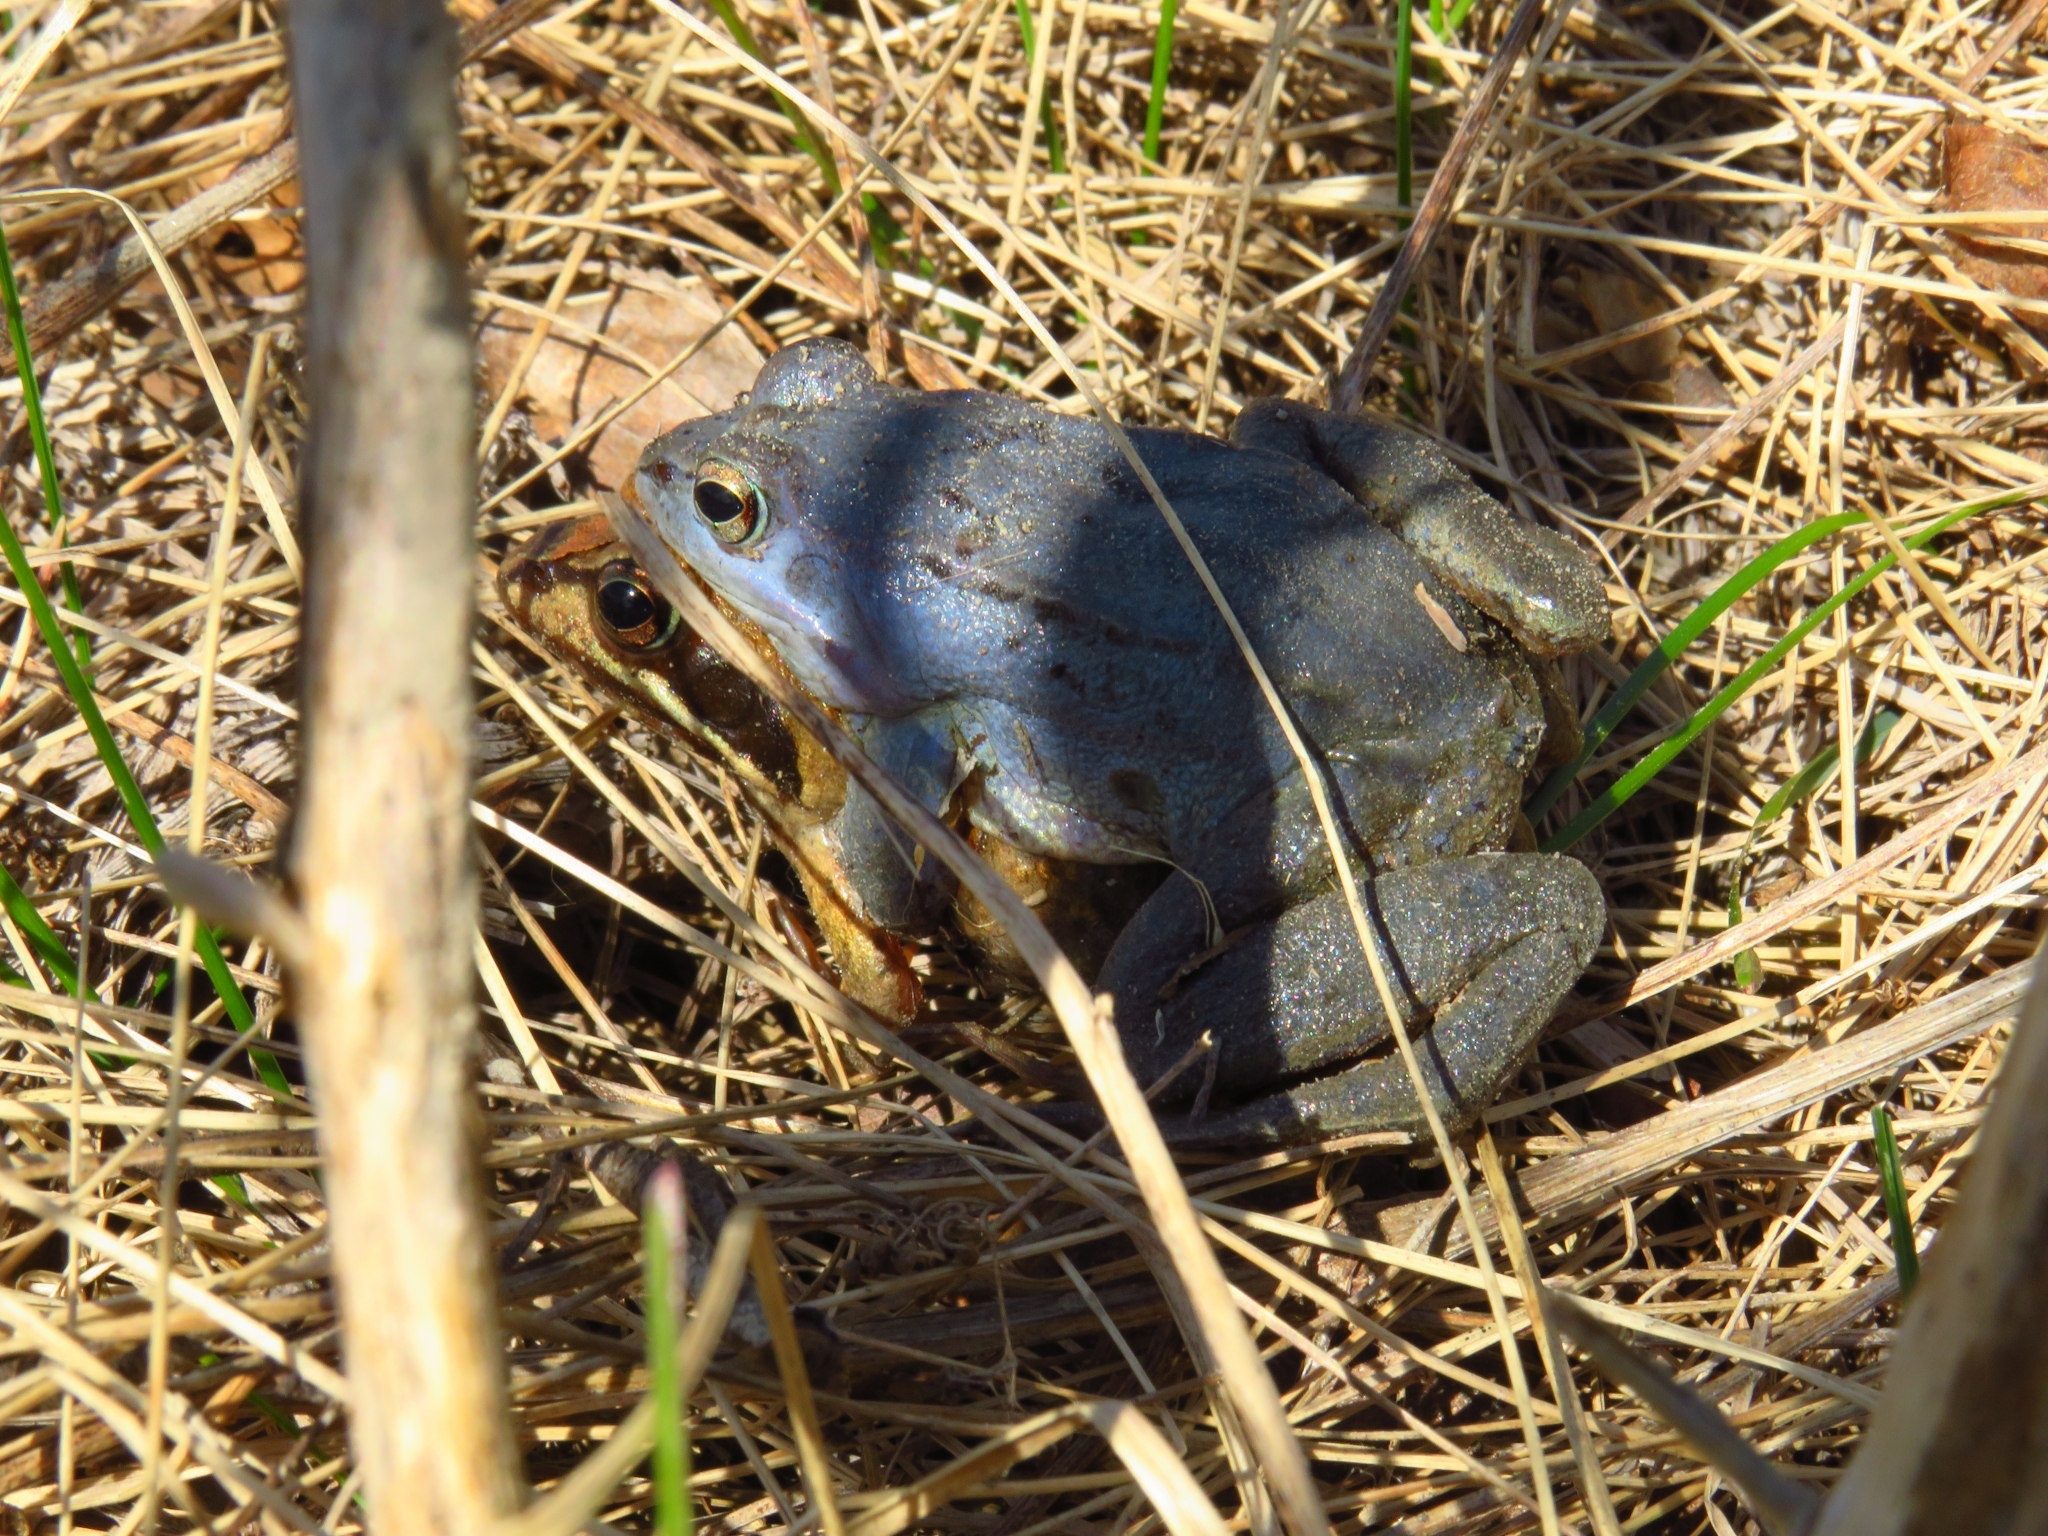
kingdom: Animalia
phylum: Chordata
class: Amphibia
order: Anura
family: Ranidae
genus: Rana
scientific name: Rana arvalis
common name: Moor frog
